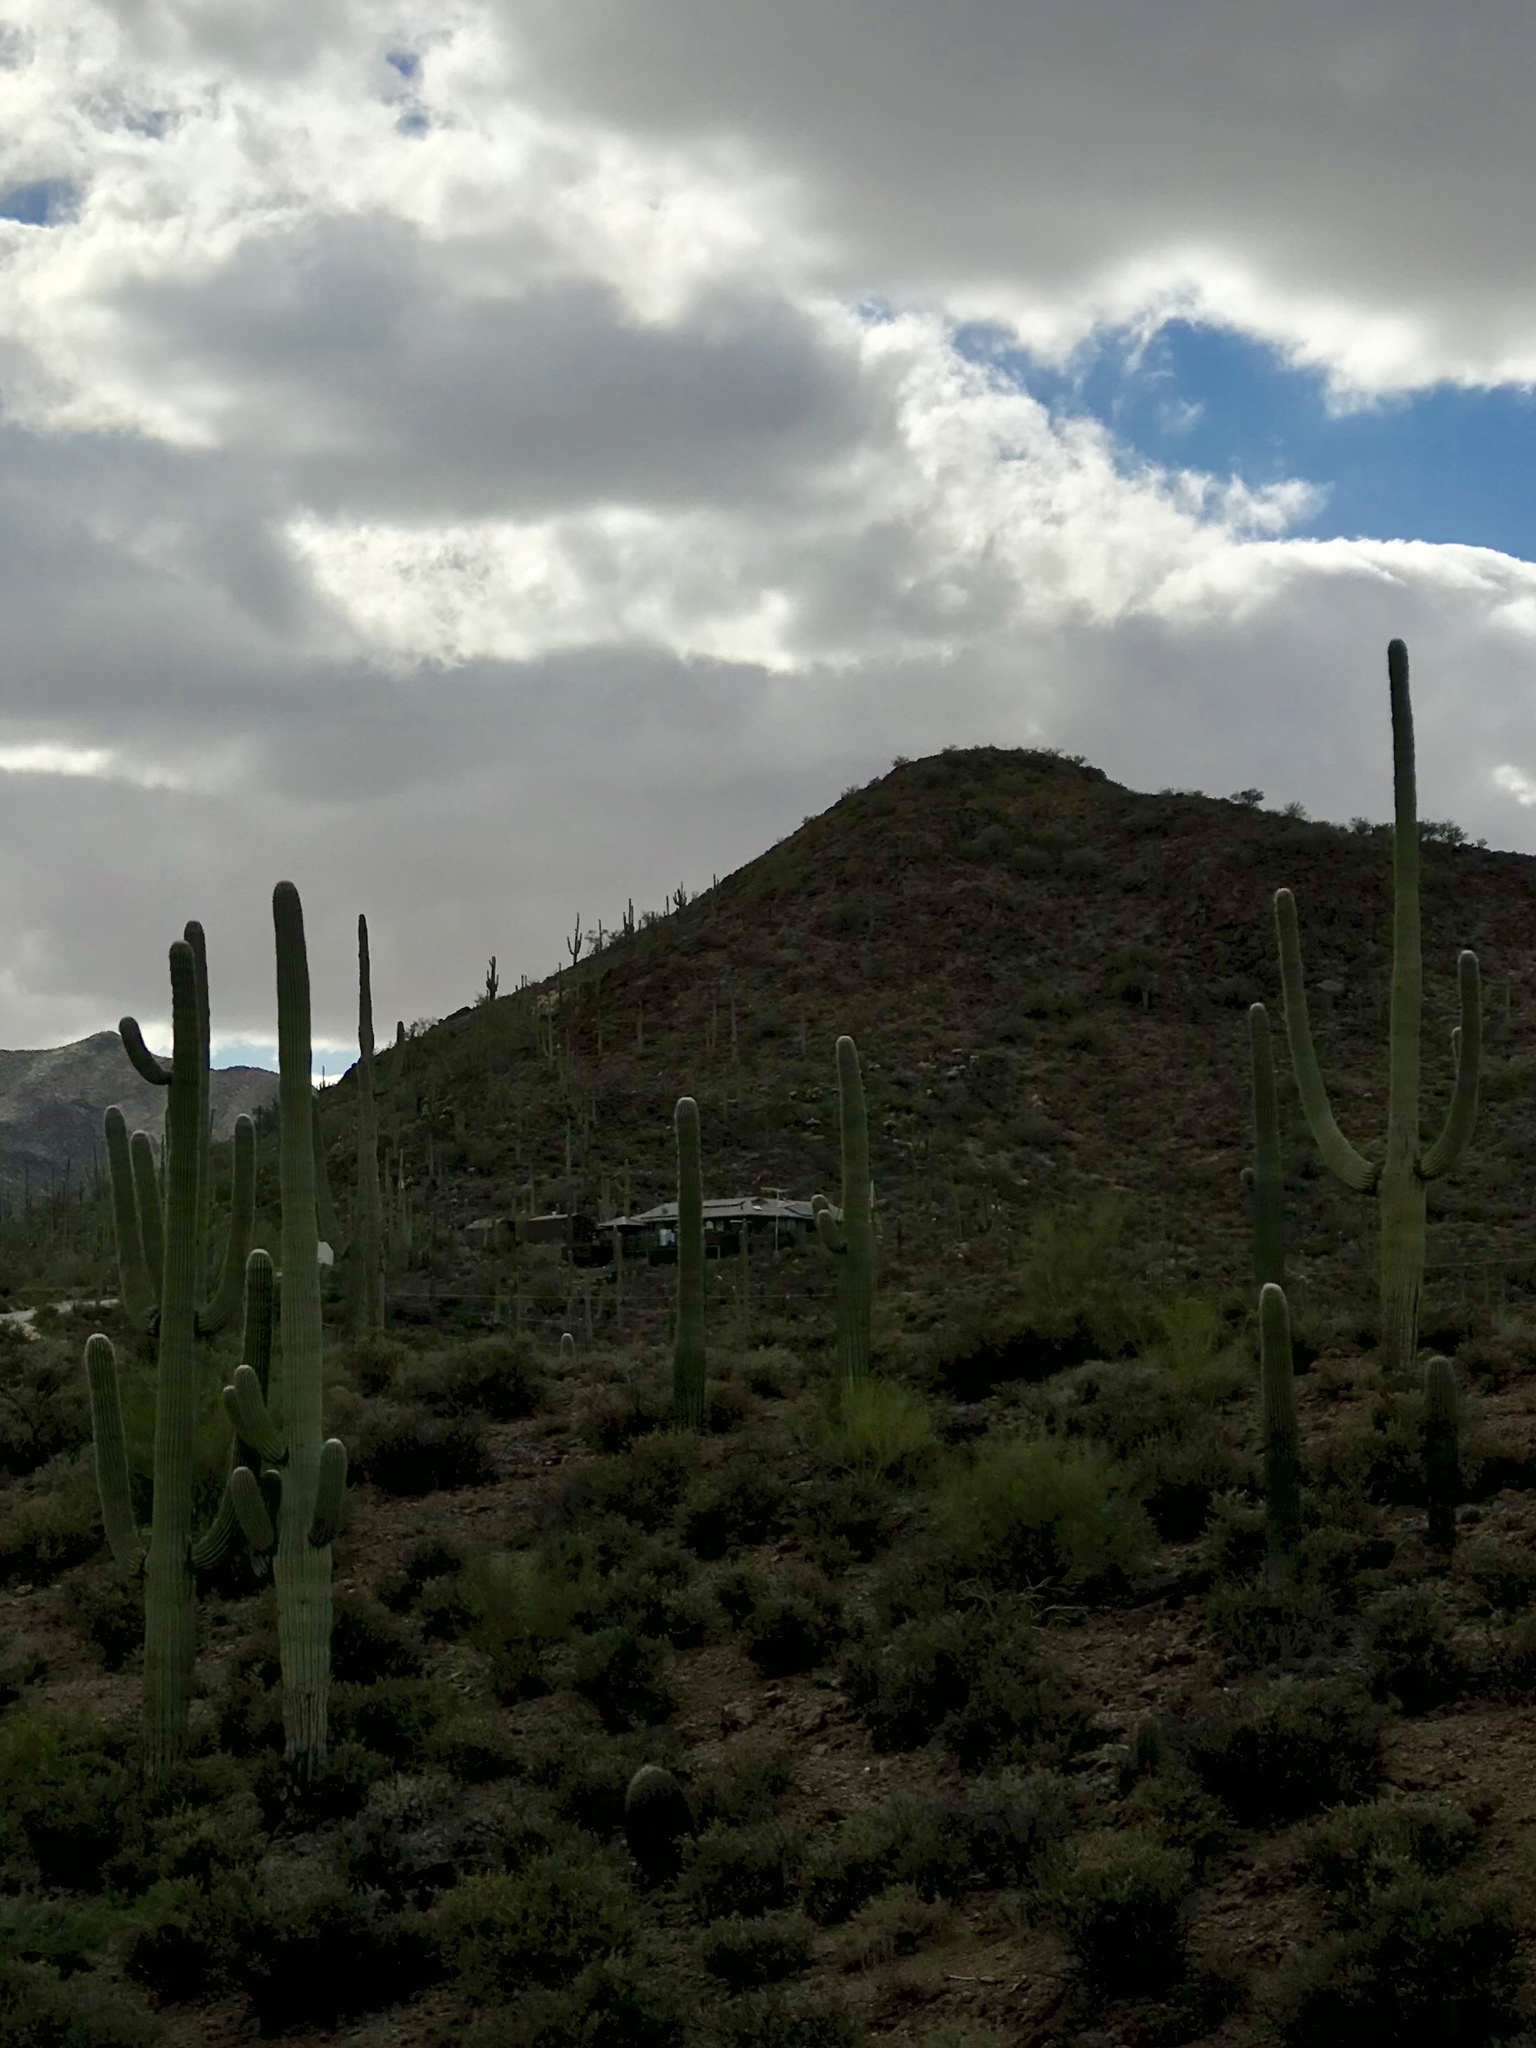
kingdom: Plantae
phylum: Tracheophyta
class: Magnoliopsida
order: Caryophyllales
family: Cactaceae
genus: Carnegiea
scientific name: Carnegiea gigantea
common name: Saguaro
